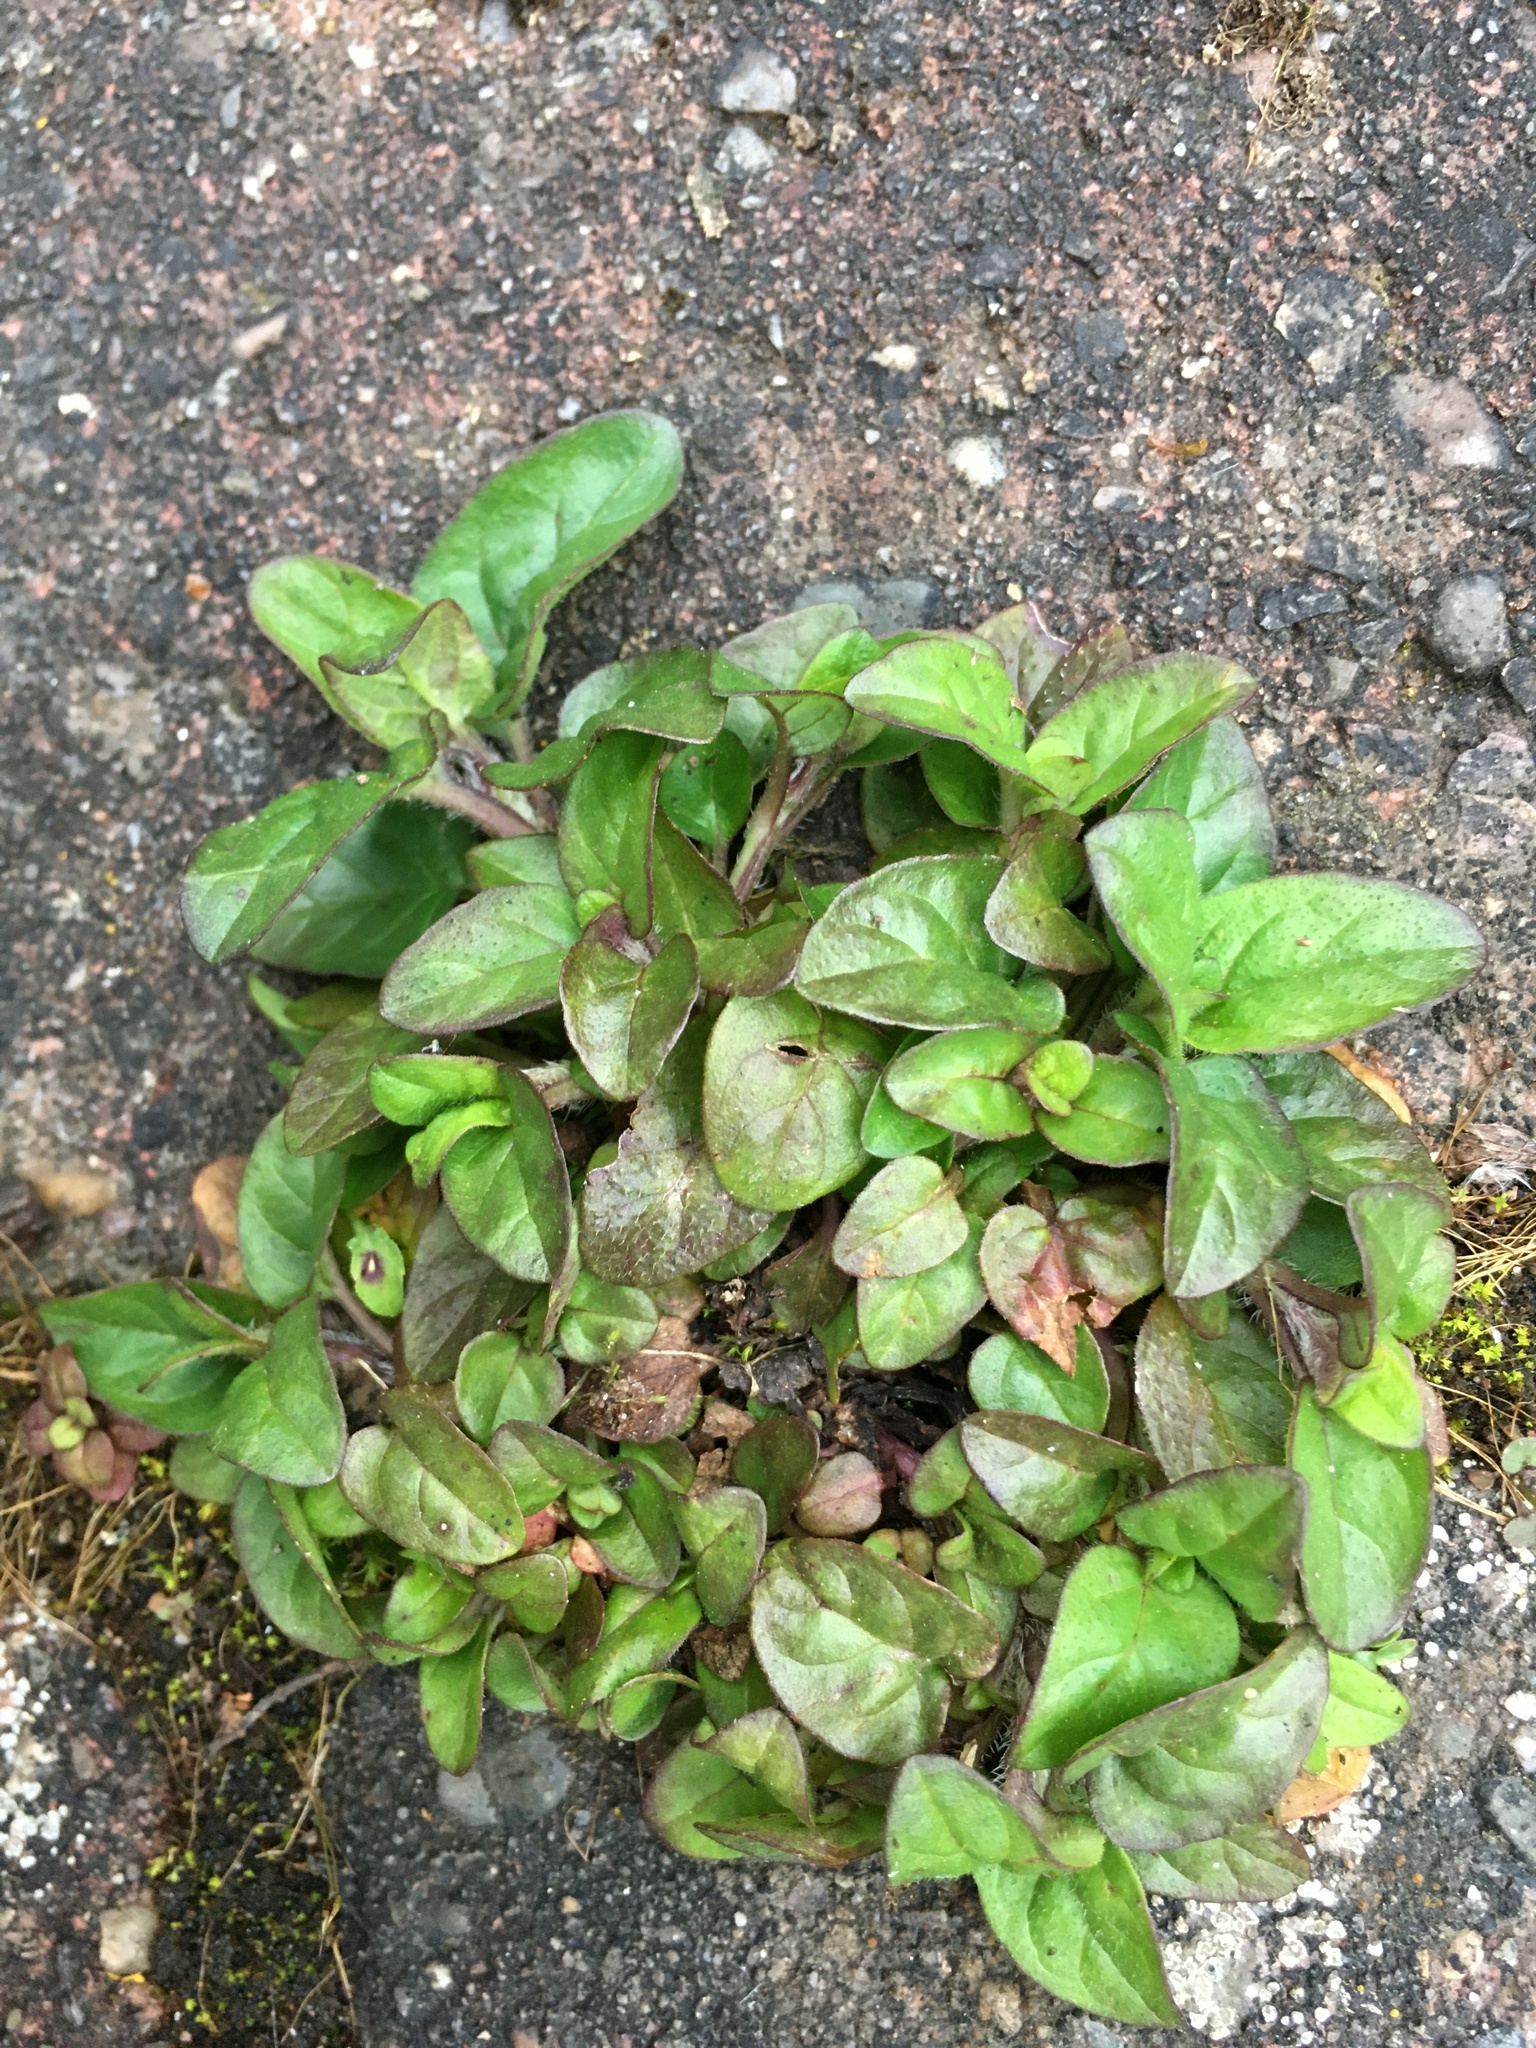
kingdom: Plantae
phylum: Tracheophyta
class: Magnoliopsida
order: Lamiales
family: Lamiaceae
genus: Prunella
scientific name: Prunella vulgaris
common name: Heal-all
